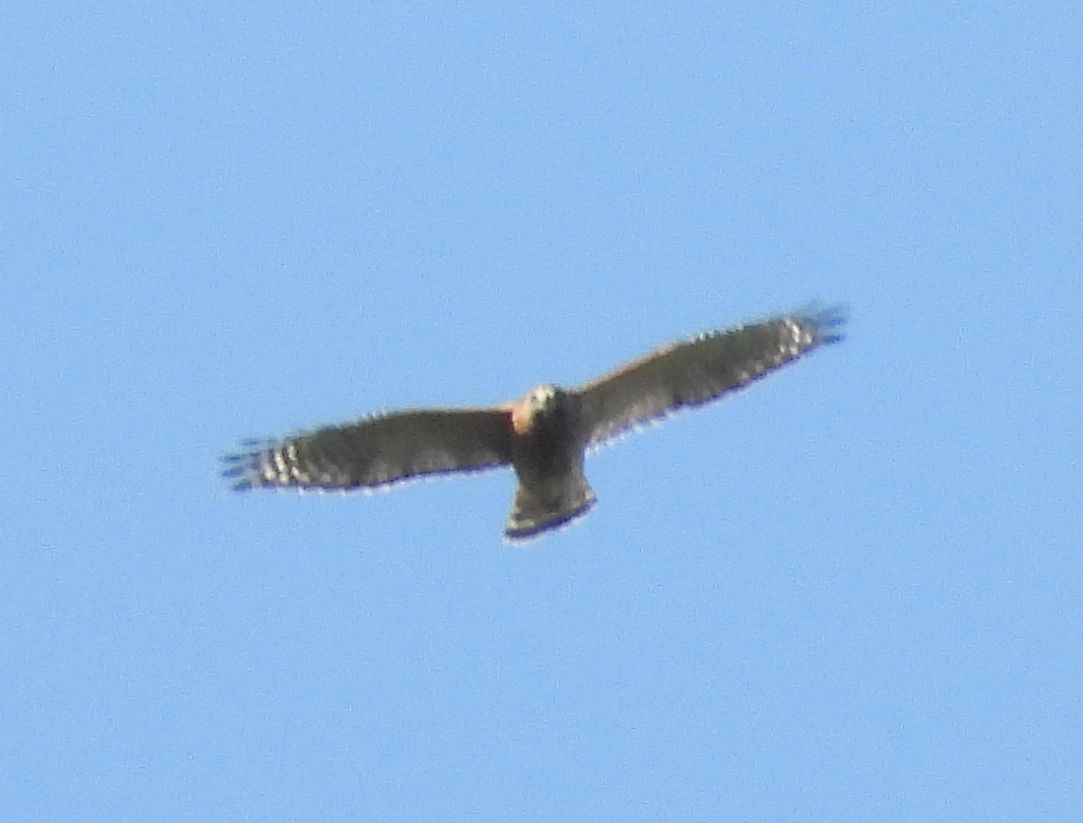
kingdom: Animalia
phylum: Chordata
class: Aves
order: Accipitriformes
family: Accipitridae
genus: Buteo
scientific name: Buteo lineatus
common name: Red-shouldered hawk
